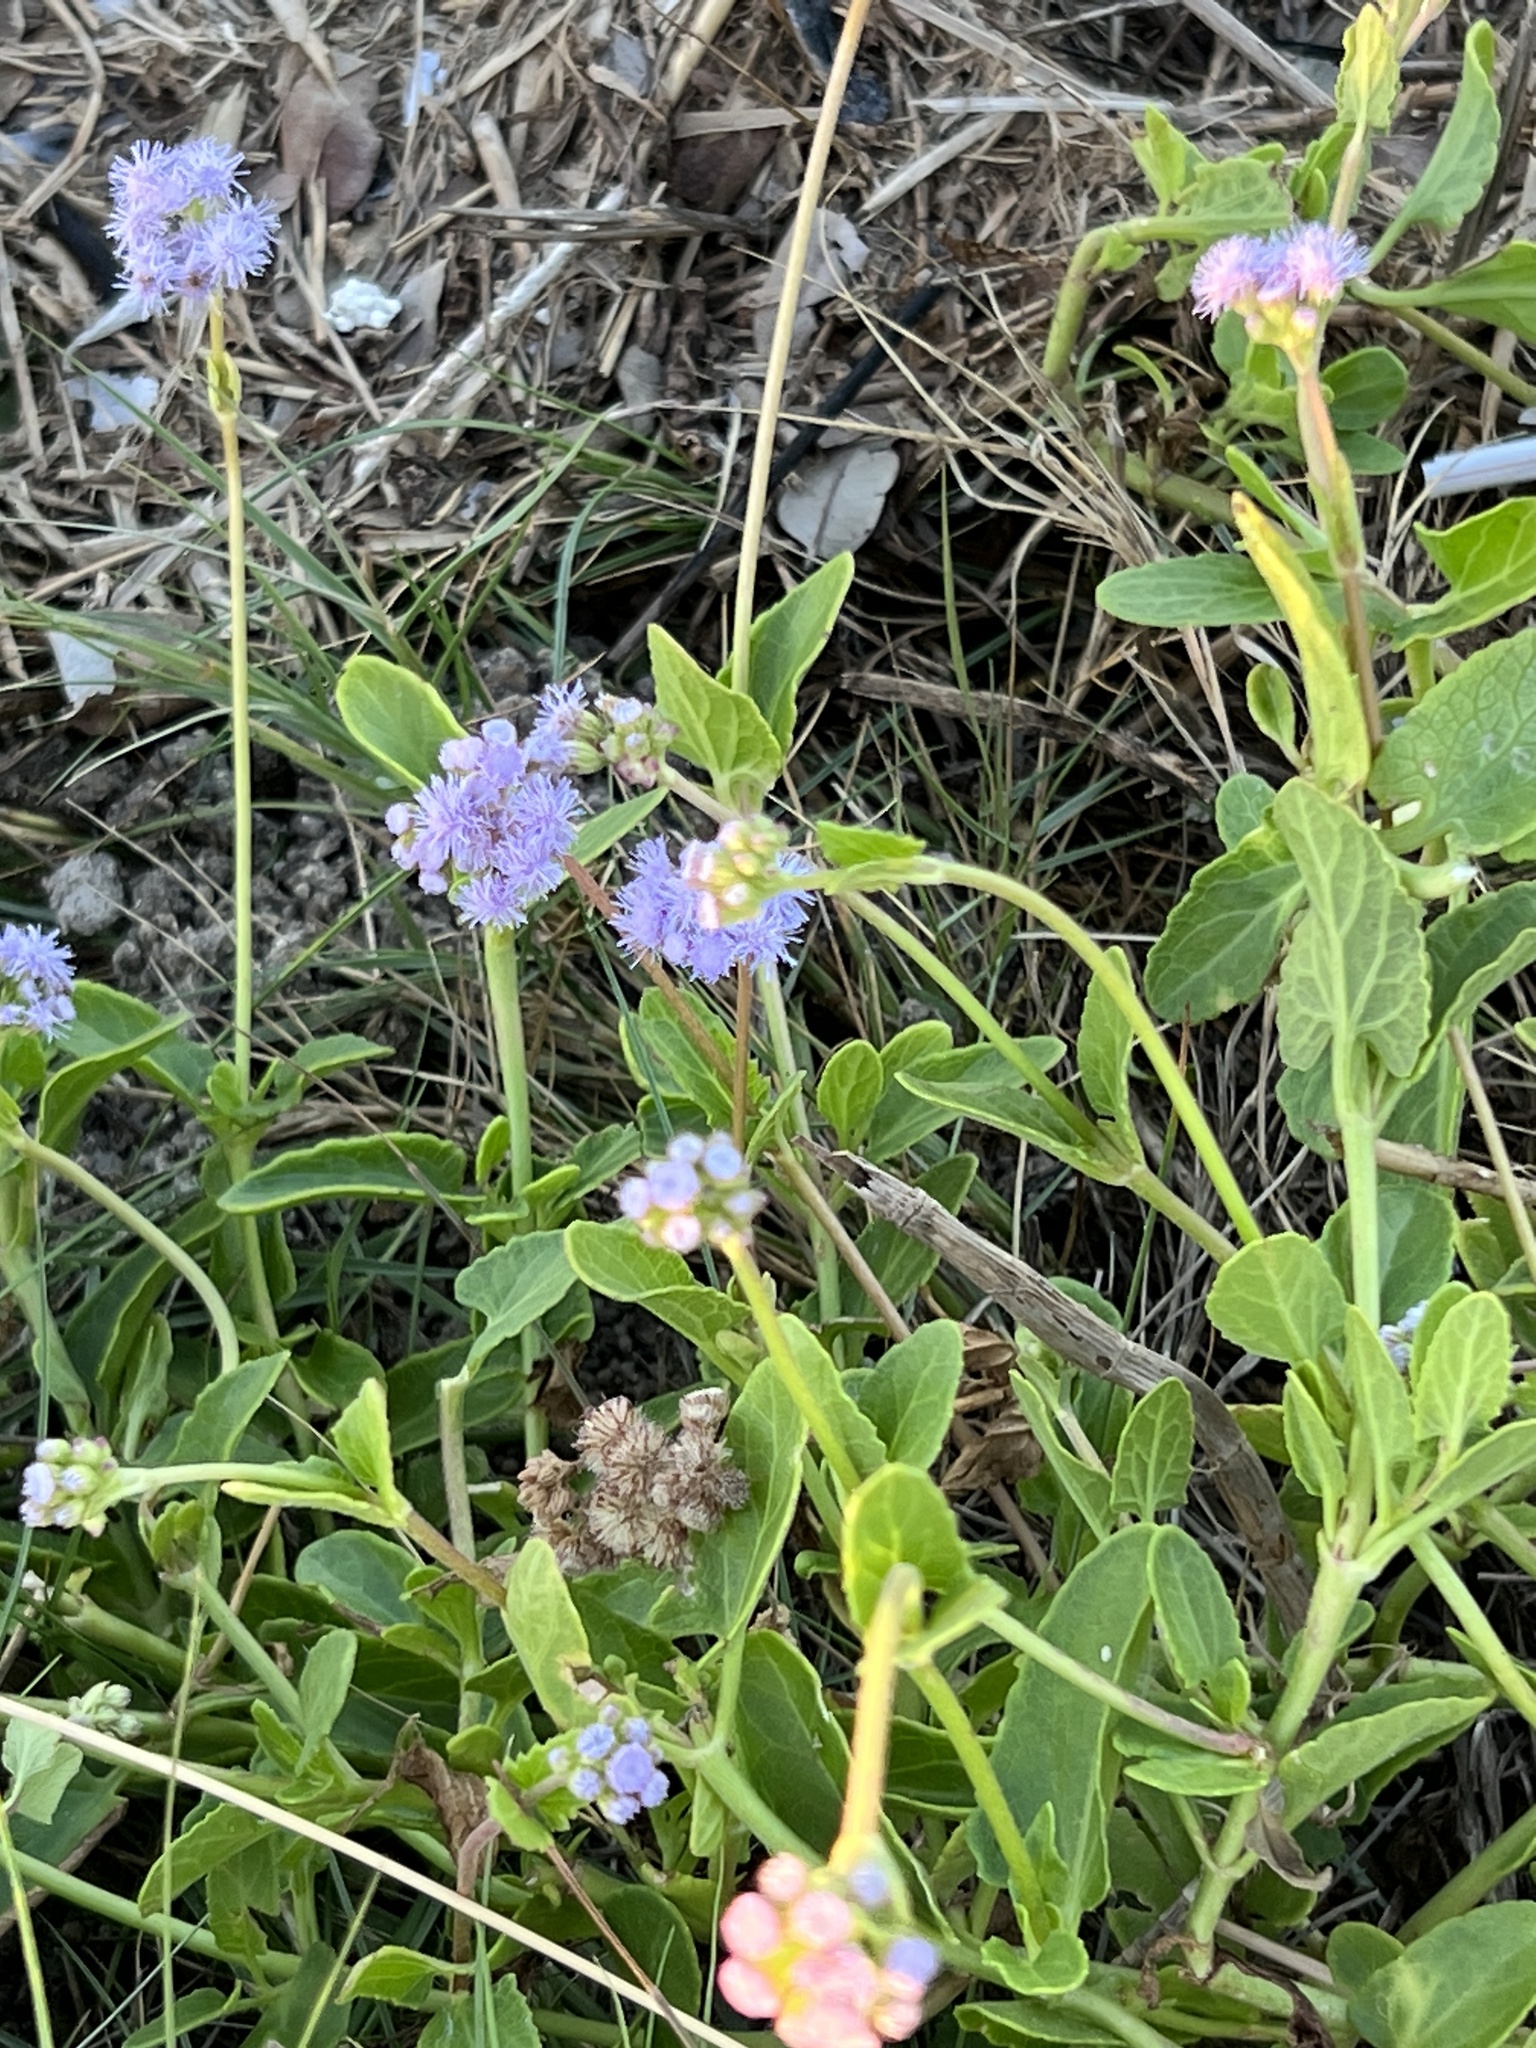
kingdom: Plantae
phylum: Tracheophyta
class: Magnoliopsida
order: Asterales
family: Asteraceae
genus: Conoclinium
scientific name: Conoclinium betonicifolium
